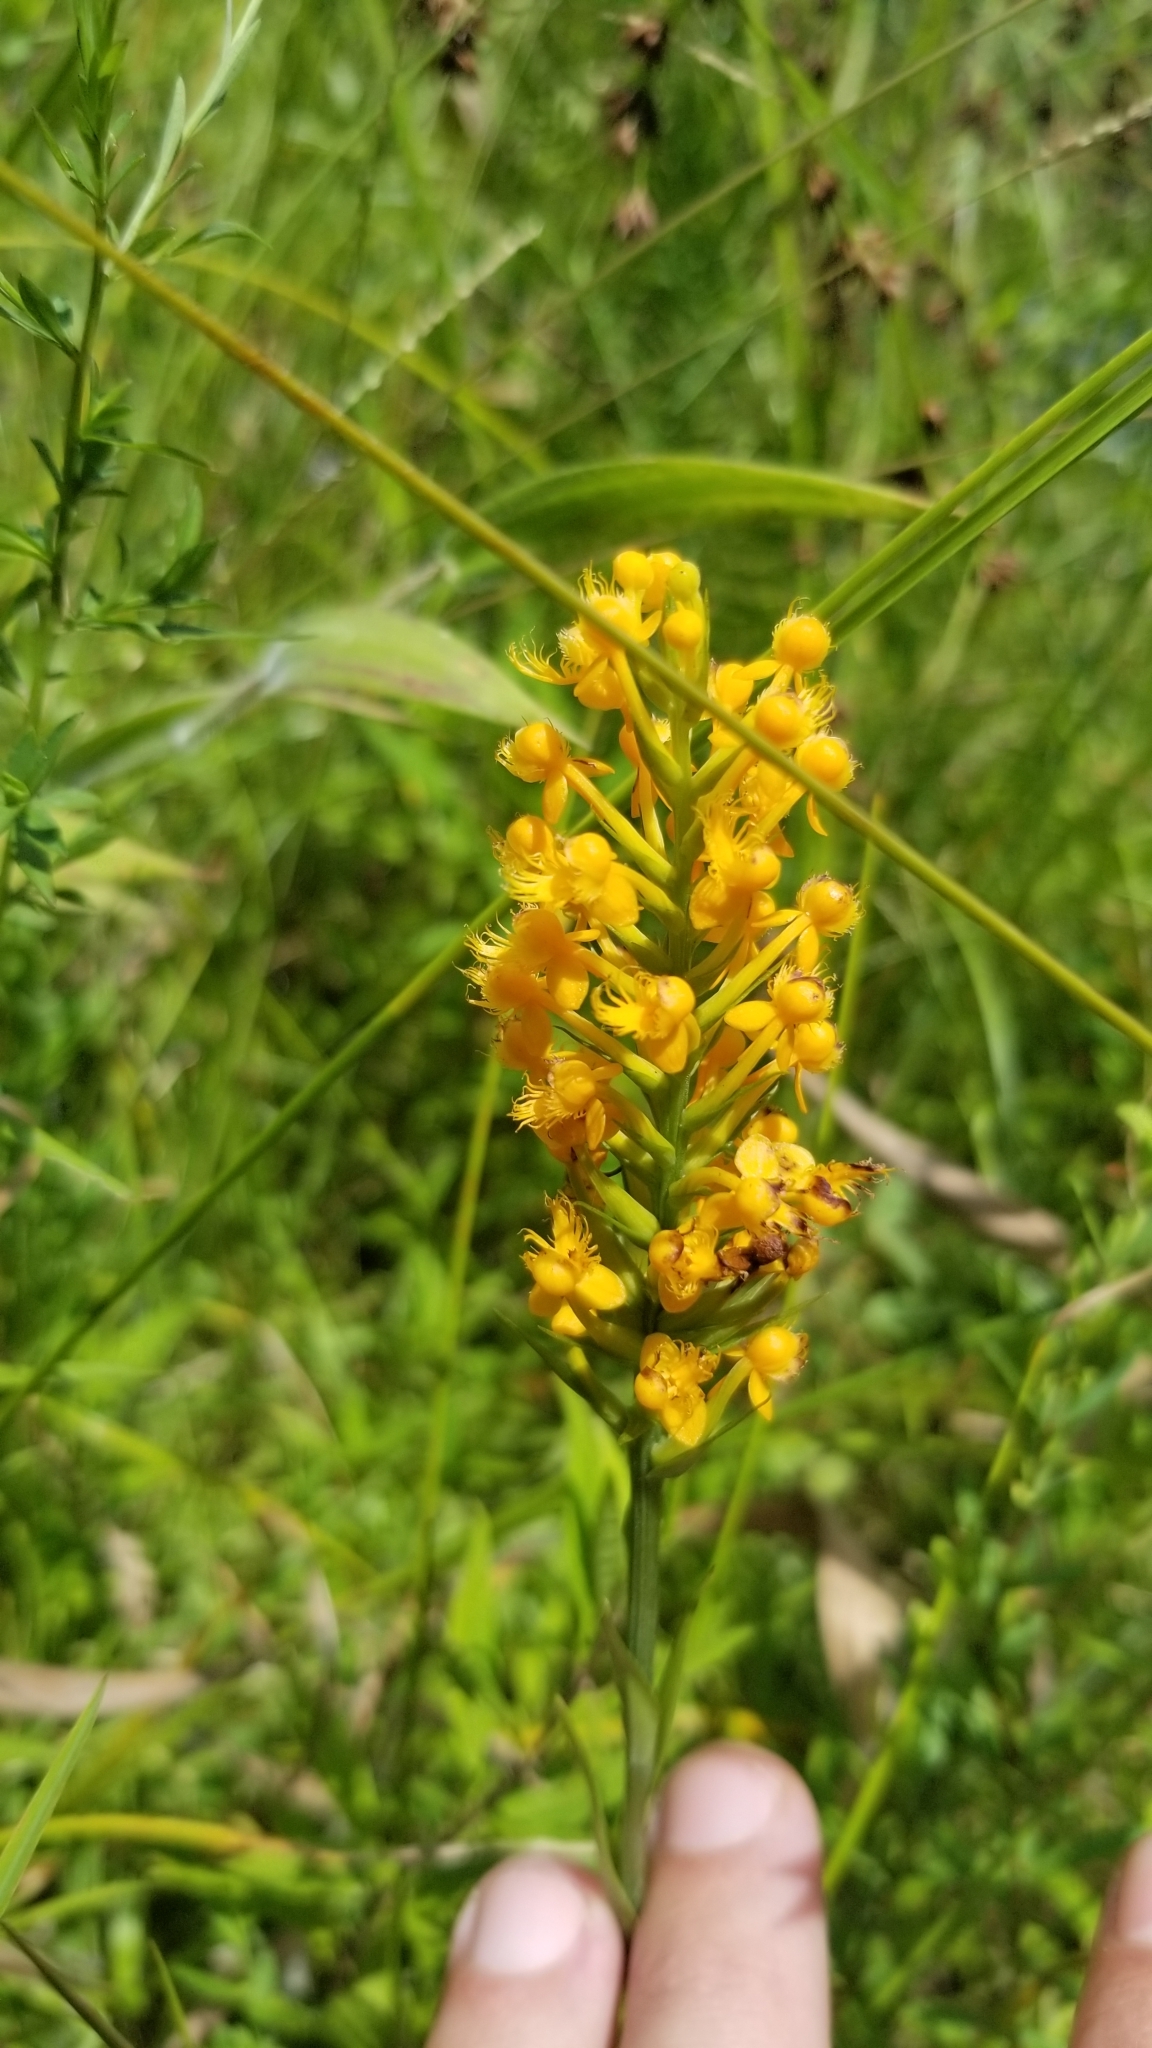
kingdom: Plantae
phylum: Tracheophyta
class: Liliopsida
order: Asparagales
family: Orchidaceae
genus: Platanthera
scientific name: Platanthera cristata
